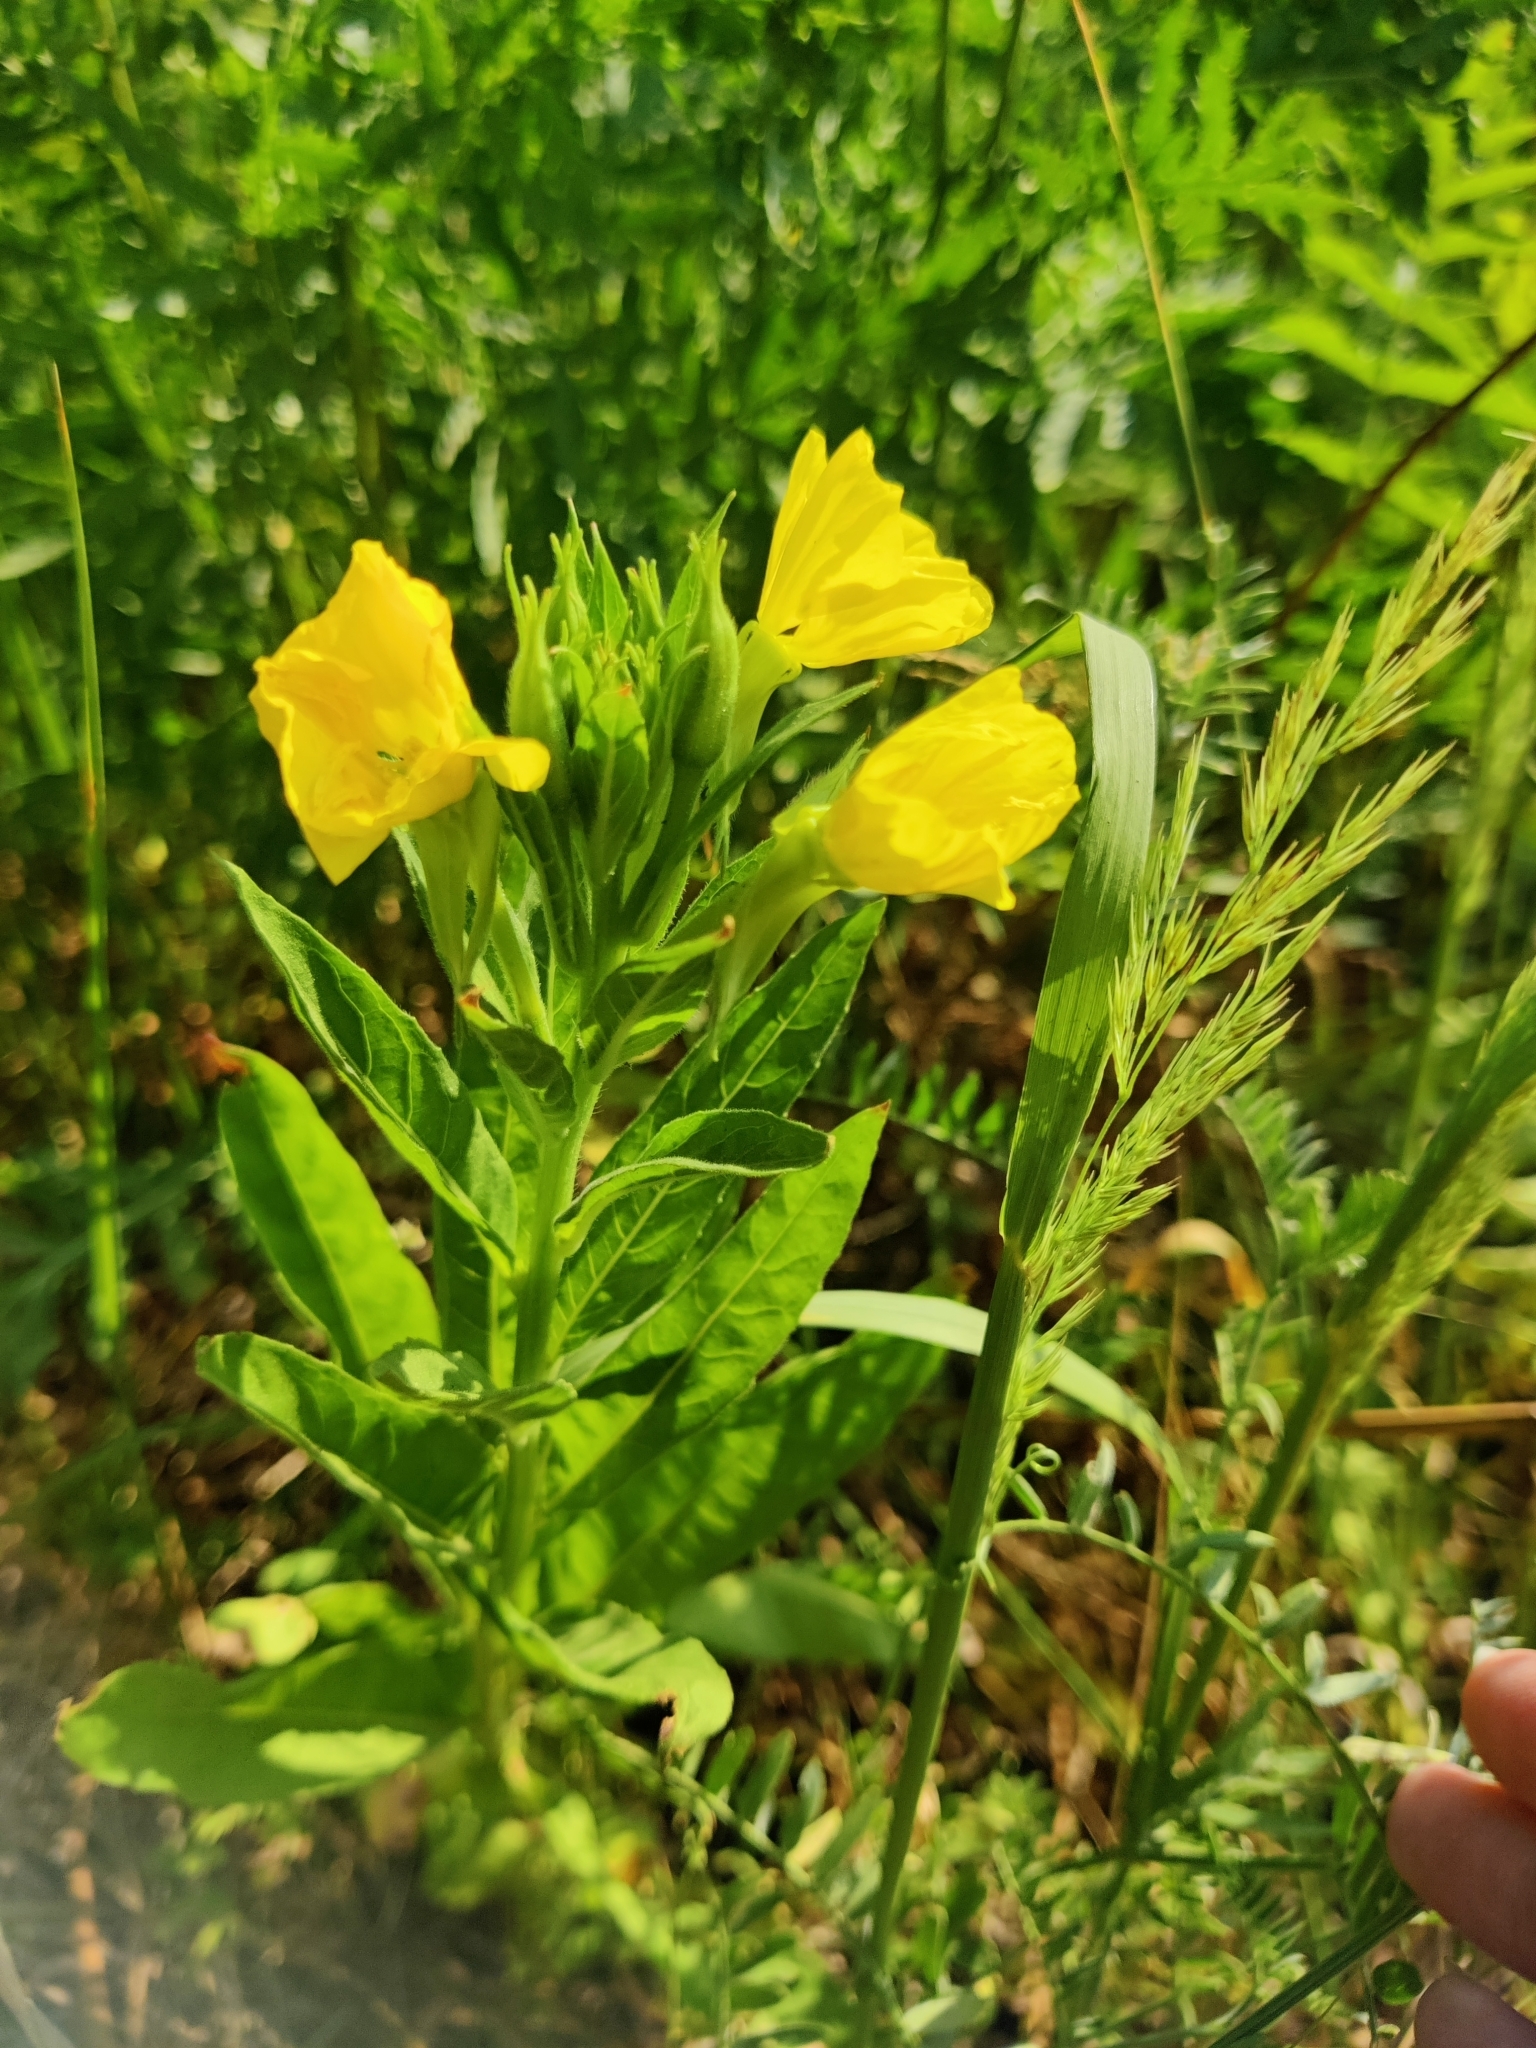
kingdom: Plantae
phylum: Tracheophyta
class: Magnoliopsida
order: Myrtales
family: Onagraceae
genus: Oenothera
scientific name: Oenothera biennis
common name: Common evening-primrose
